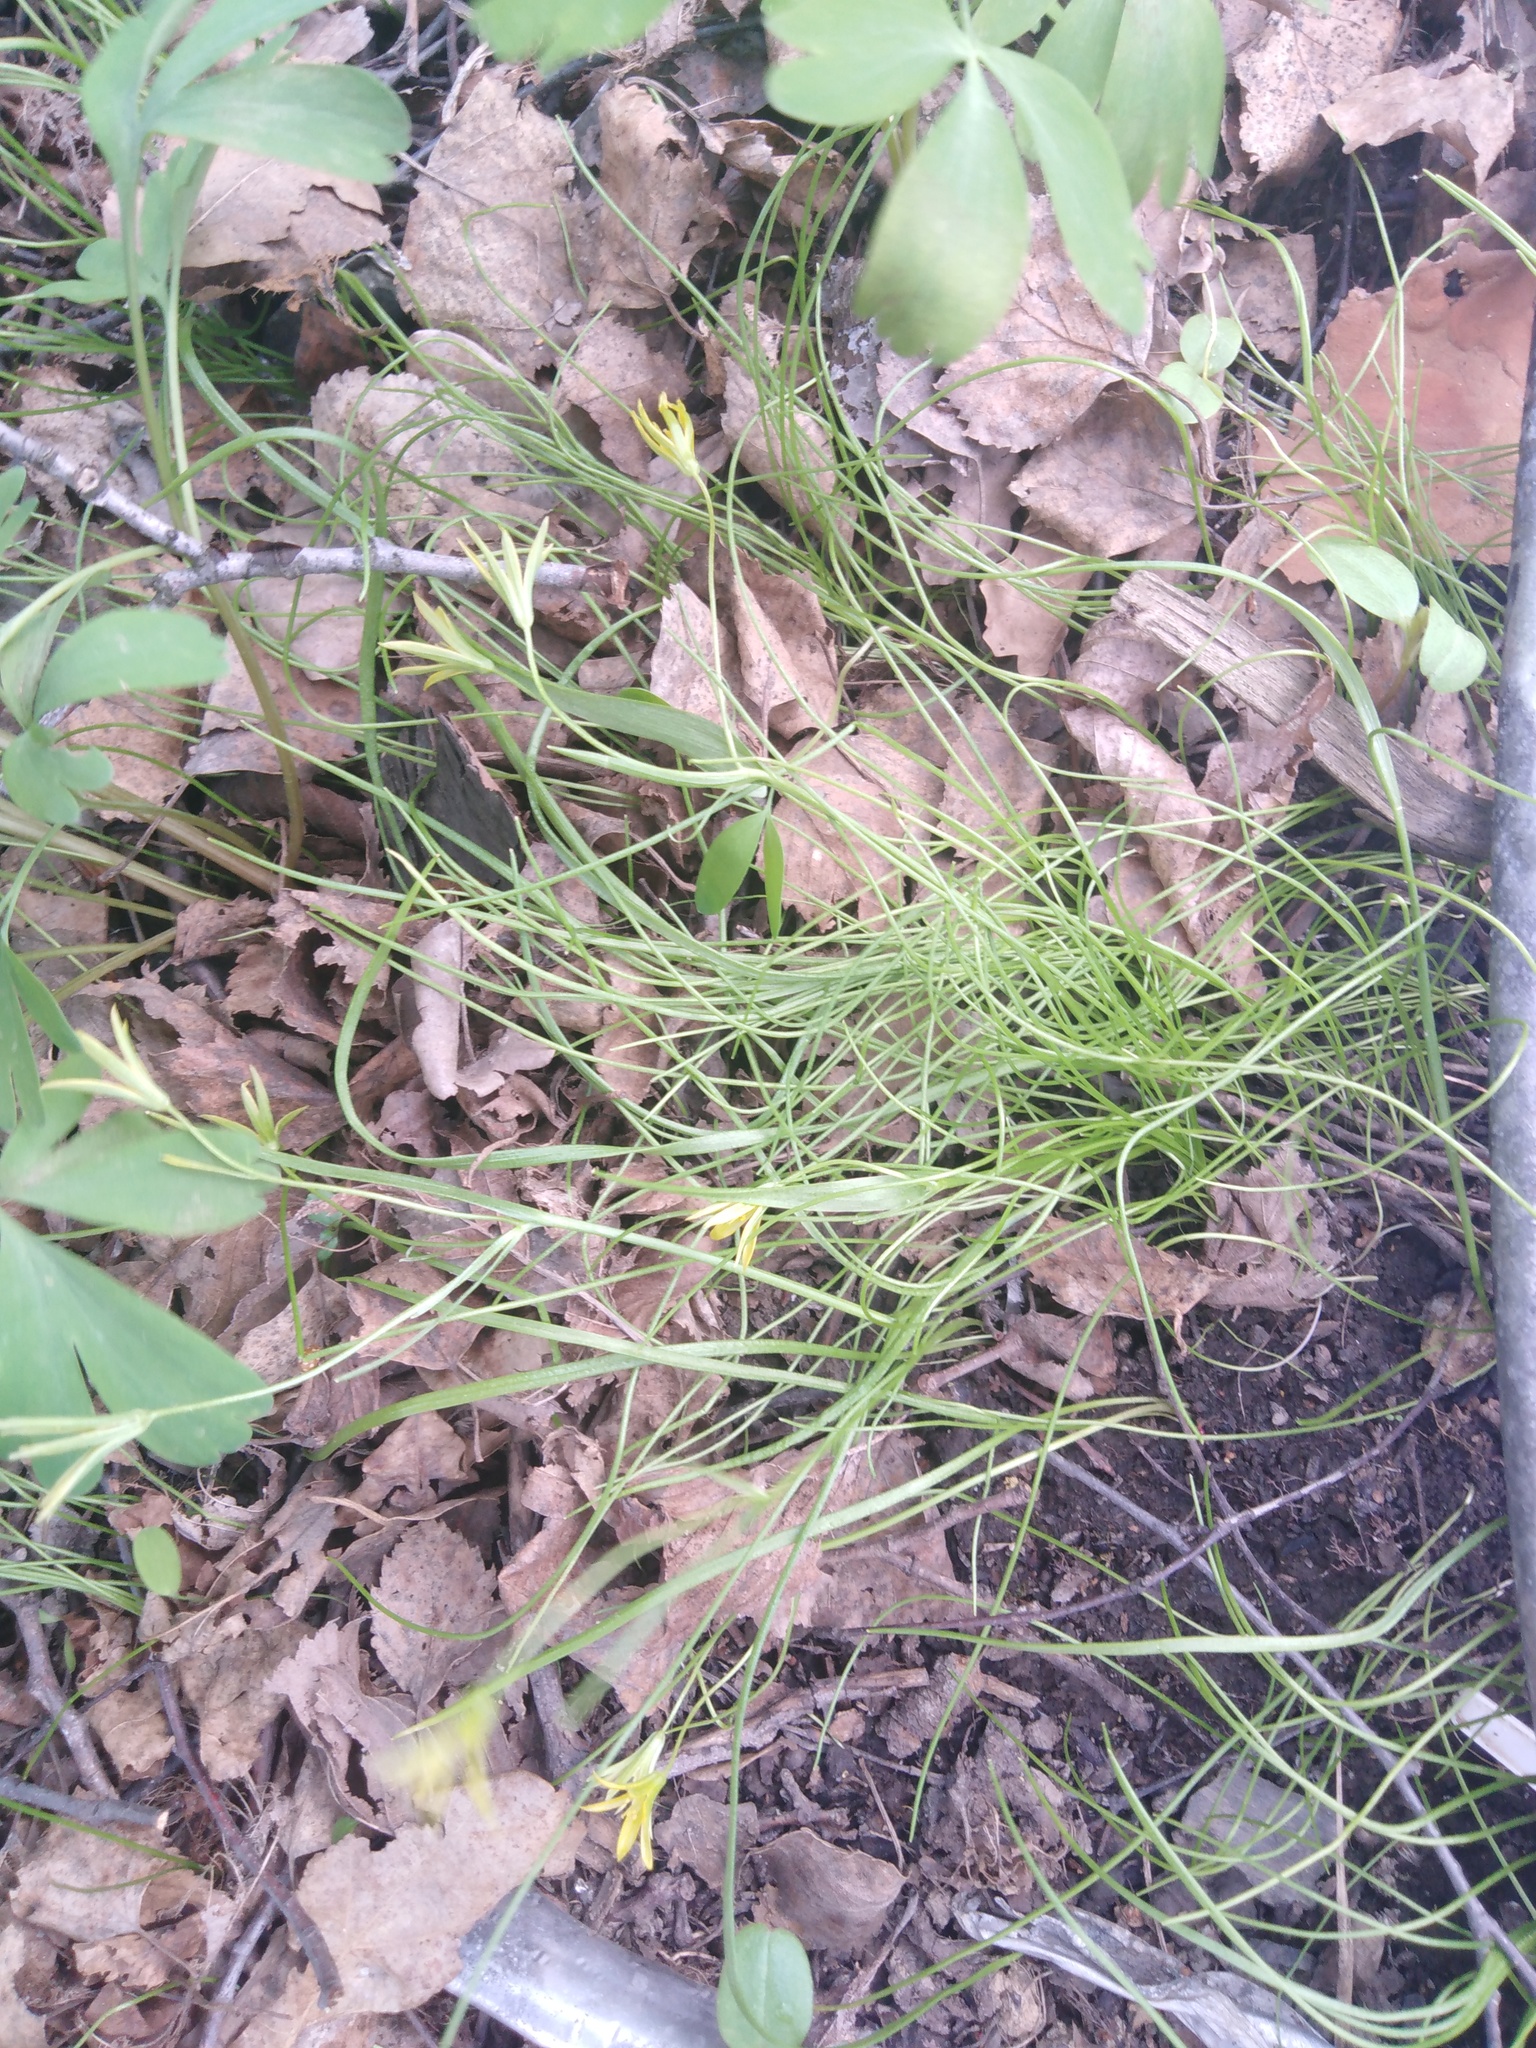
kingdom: Plantae
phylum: Tracheophyta
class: Liliopsida
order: Liliales
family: Liliaceae
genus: Gagea
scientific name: Gagea minima
